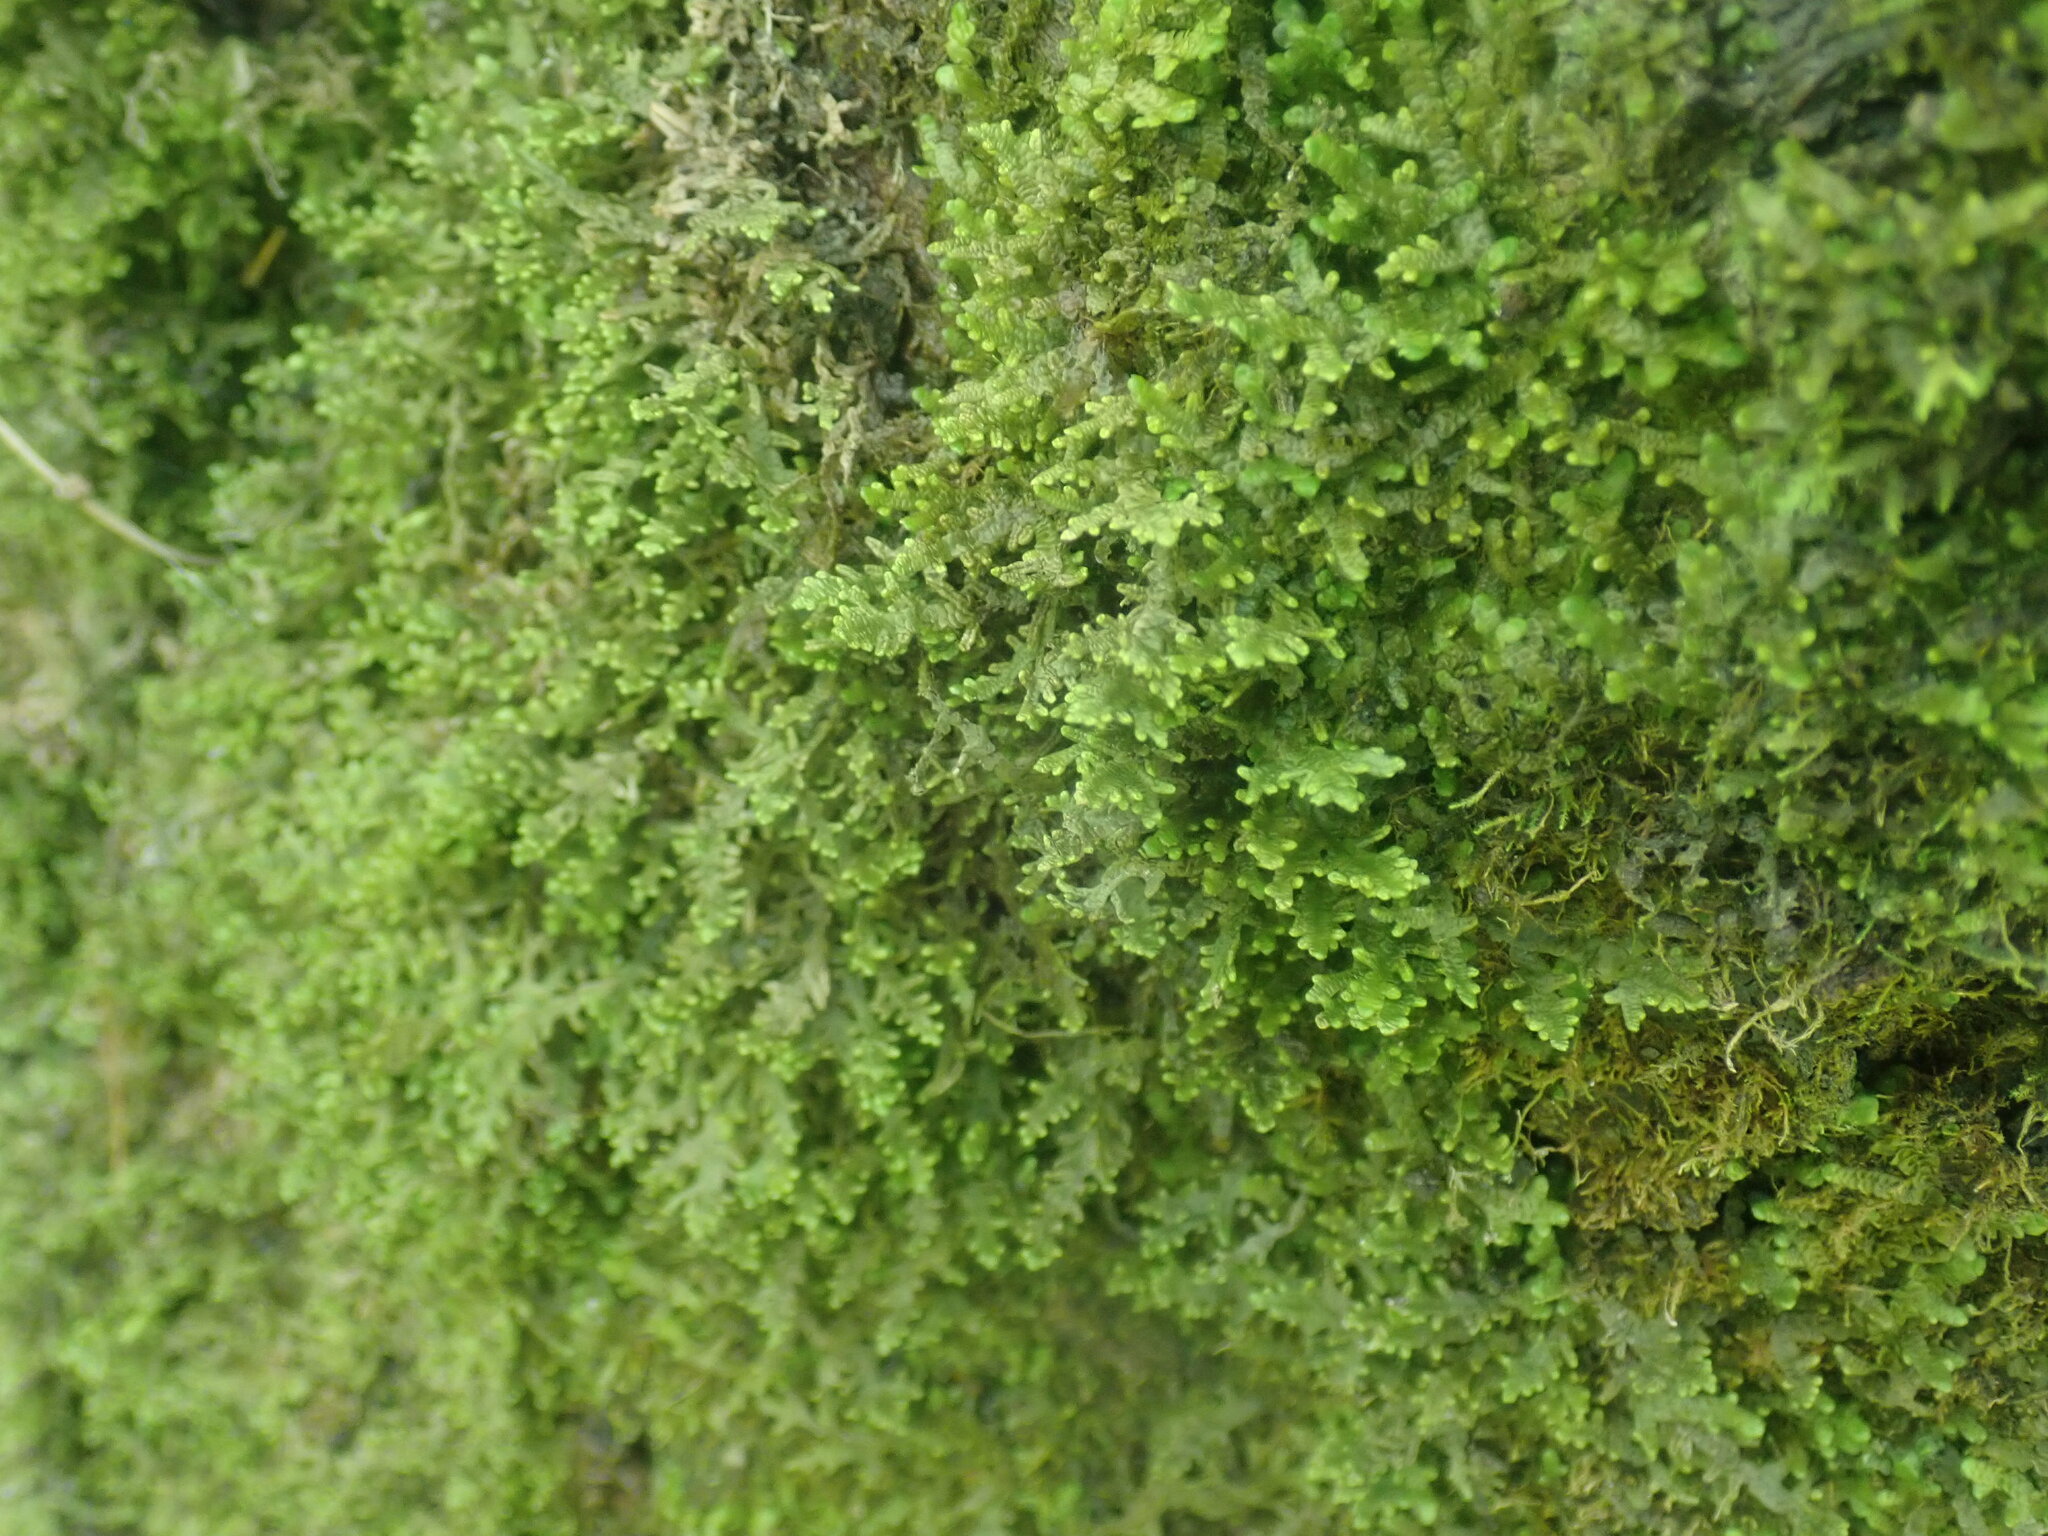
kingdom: Plantae
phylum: Marchantiophyta
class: Jungermanniopsida
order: Porellales
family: Porellaceae
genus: Porella
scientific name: Porella platyphylla
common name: Wall scalewort
